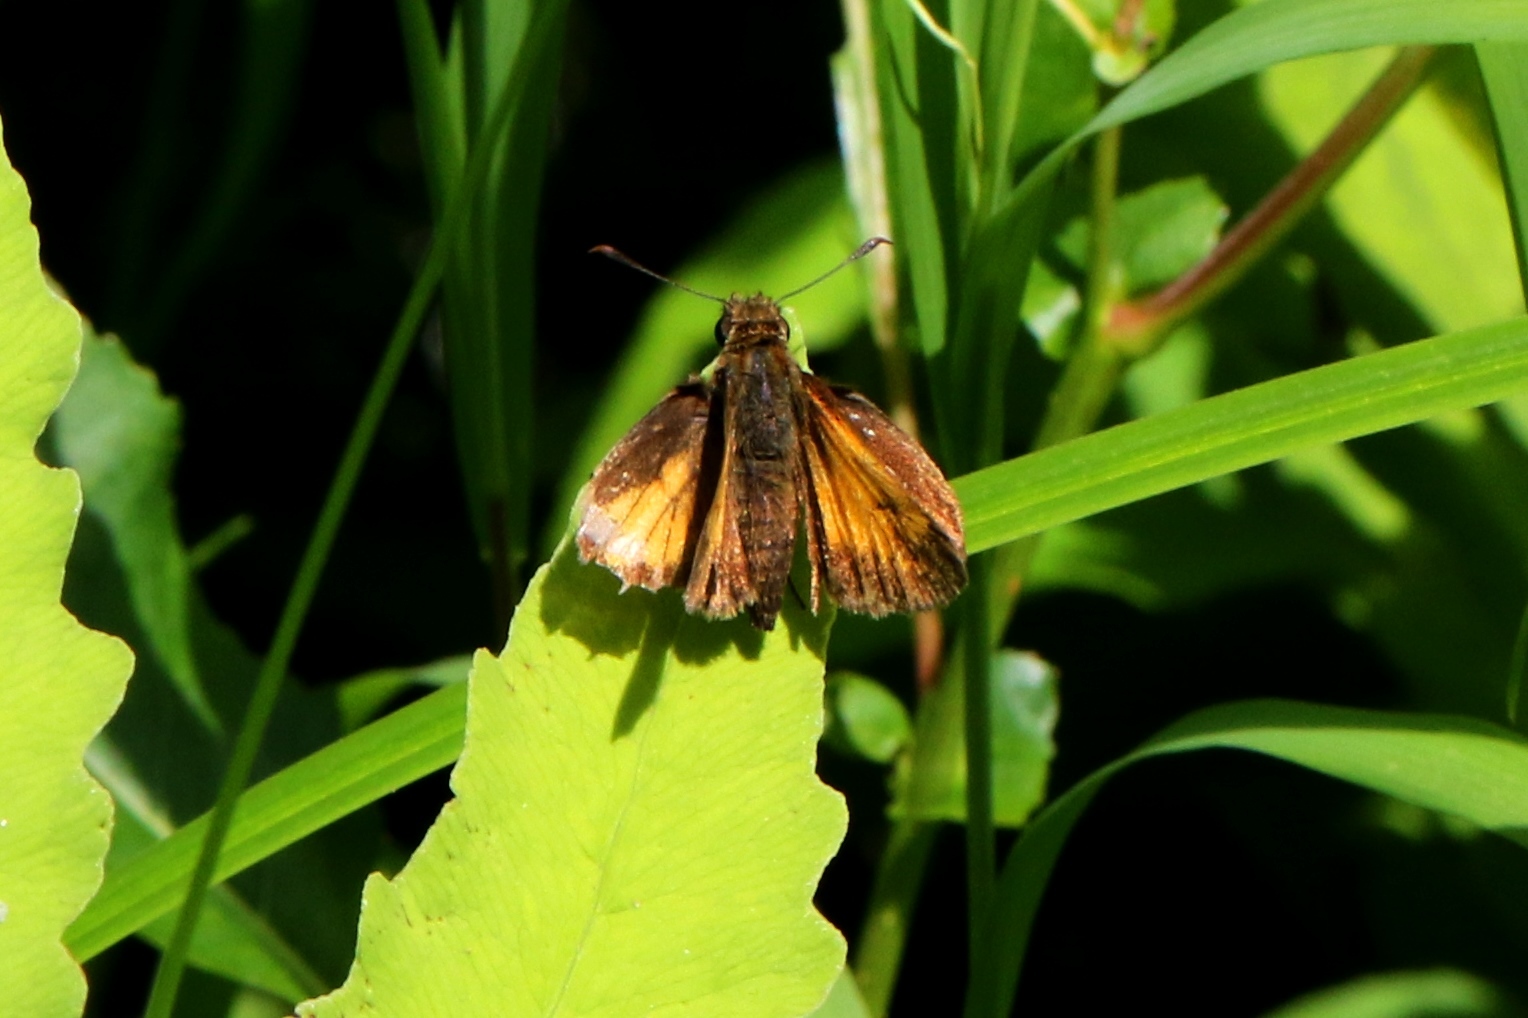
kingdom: Animalia
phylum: Arthropoda
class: Insecta
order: Lepidoptera
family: Hesperiidae
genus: Lon
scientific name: Lon hobomok
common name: Hobomok skipper
